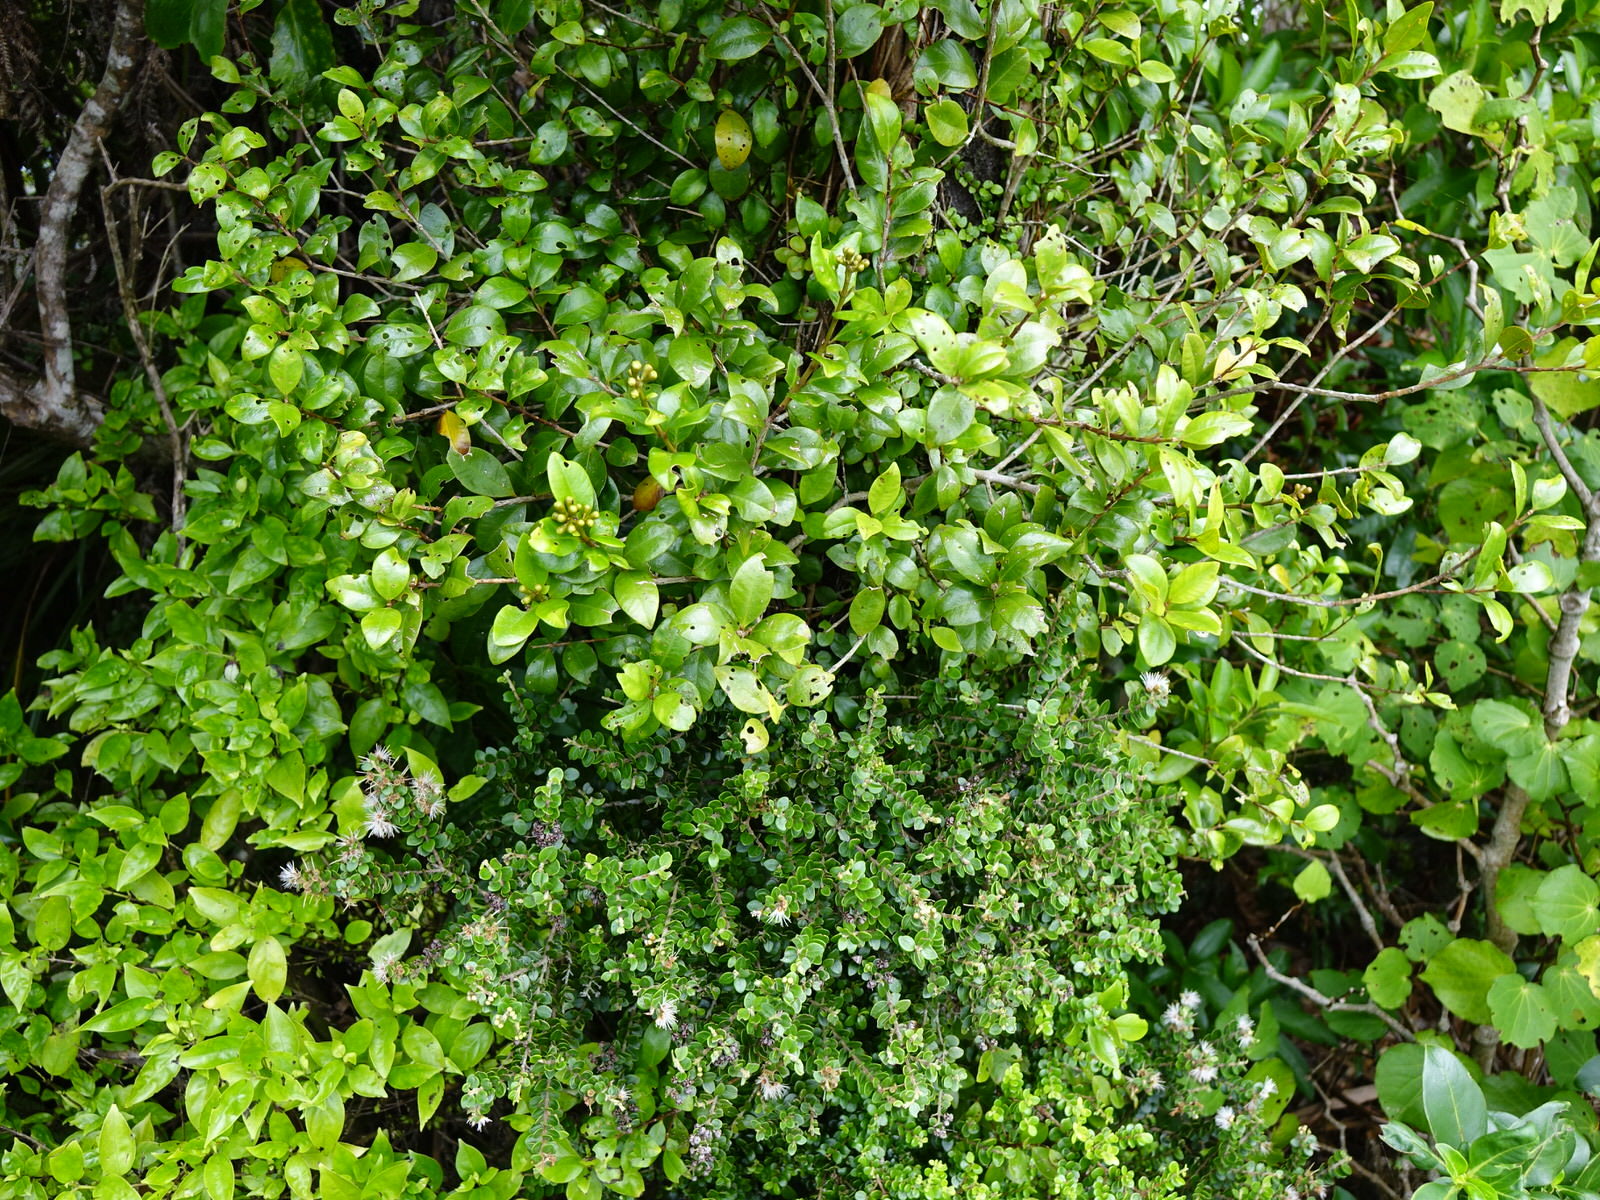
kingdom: Plantae
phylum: Tracheophyta
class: Magnoliopsida
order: Myrtales
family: Myrtaceae
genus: Metrosideros
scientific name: Metrosideros fulgens
